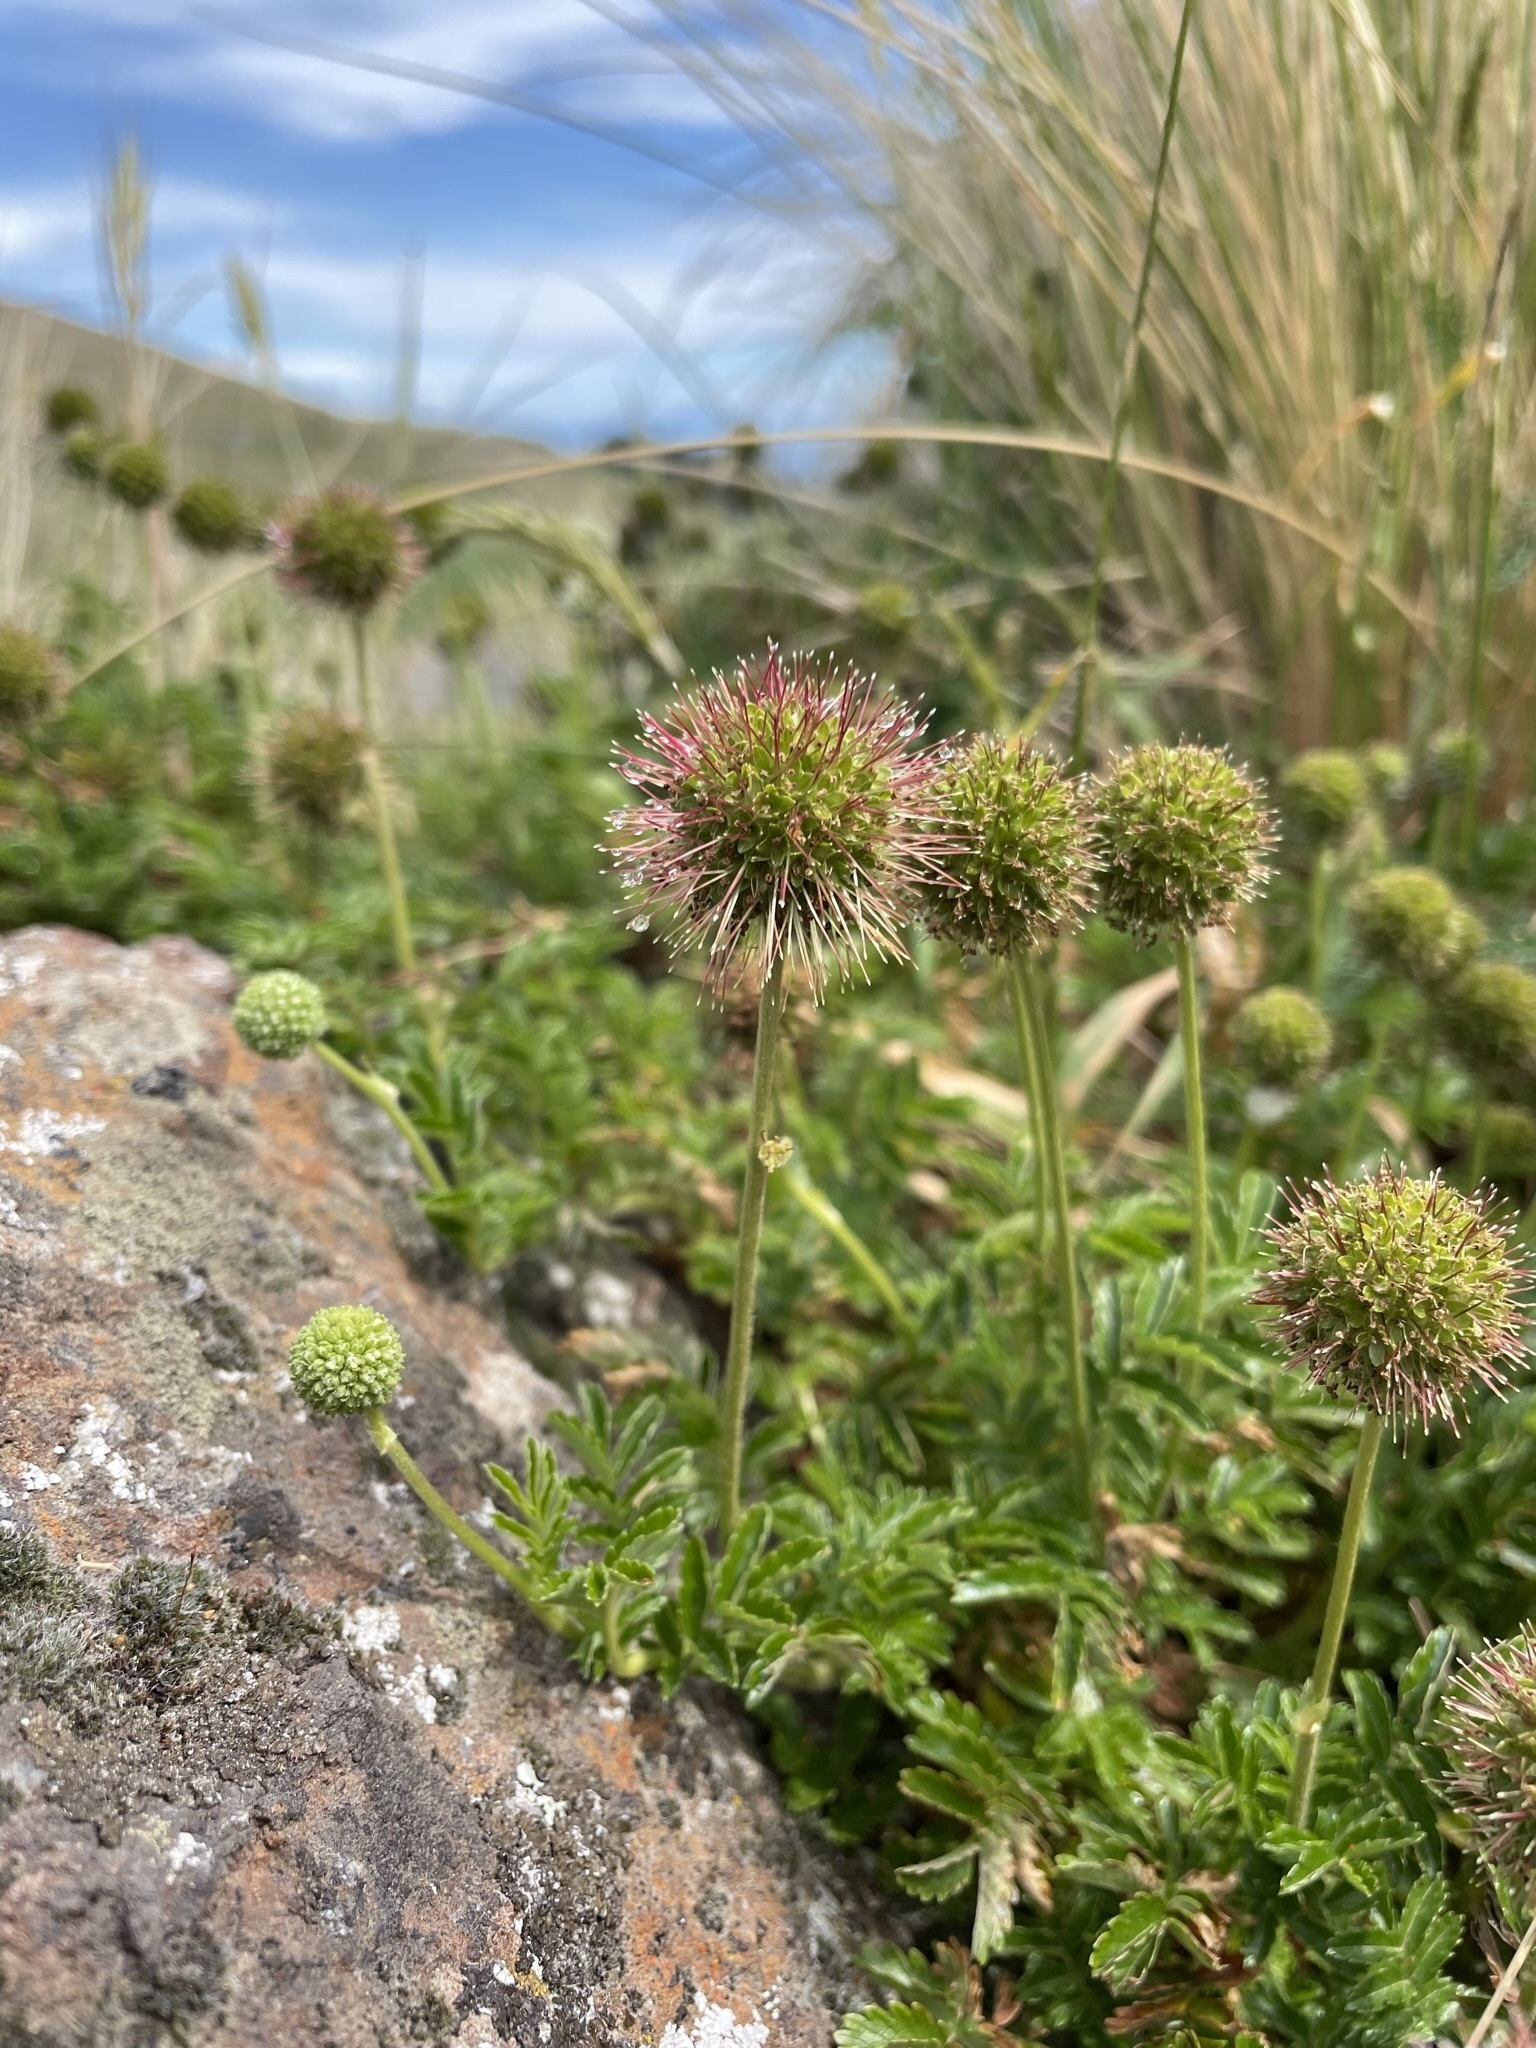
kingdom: Plantae
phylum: Tracheophyta
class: Magnoliopsida
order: Rosales
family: Rosaceae
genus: Acaena
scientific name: Acaena novae-zelandiae
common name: Pirri-pirri-bur
